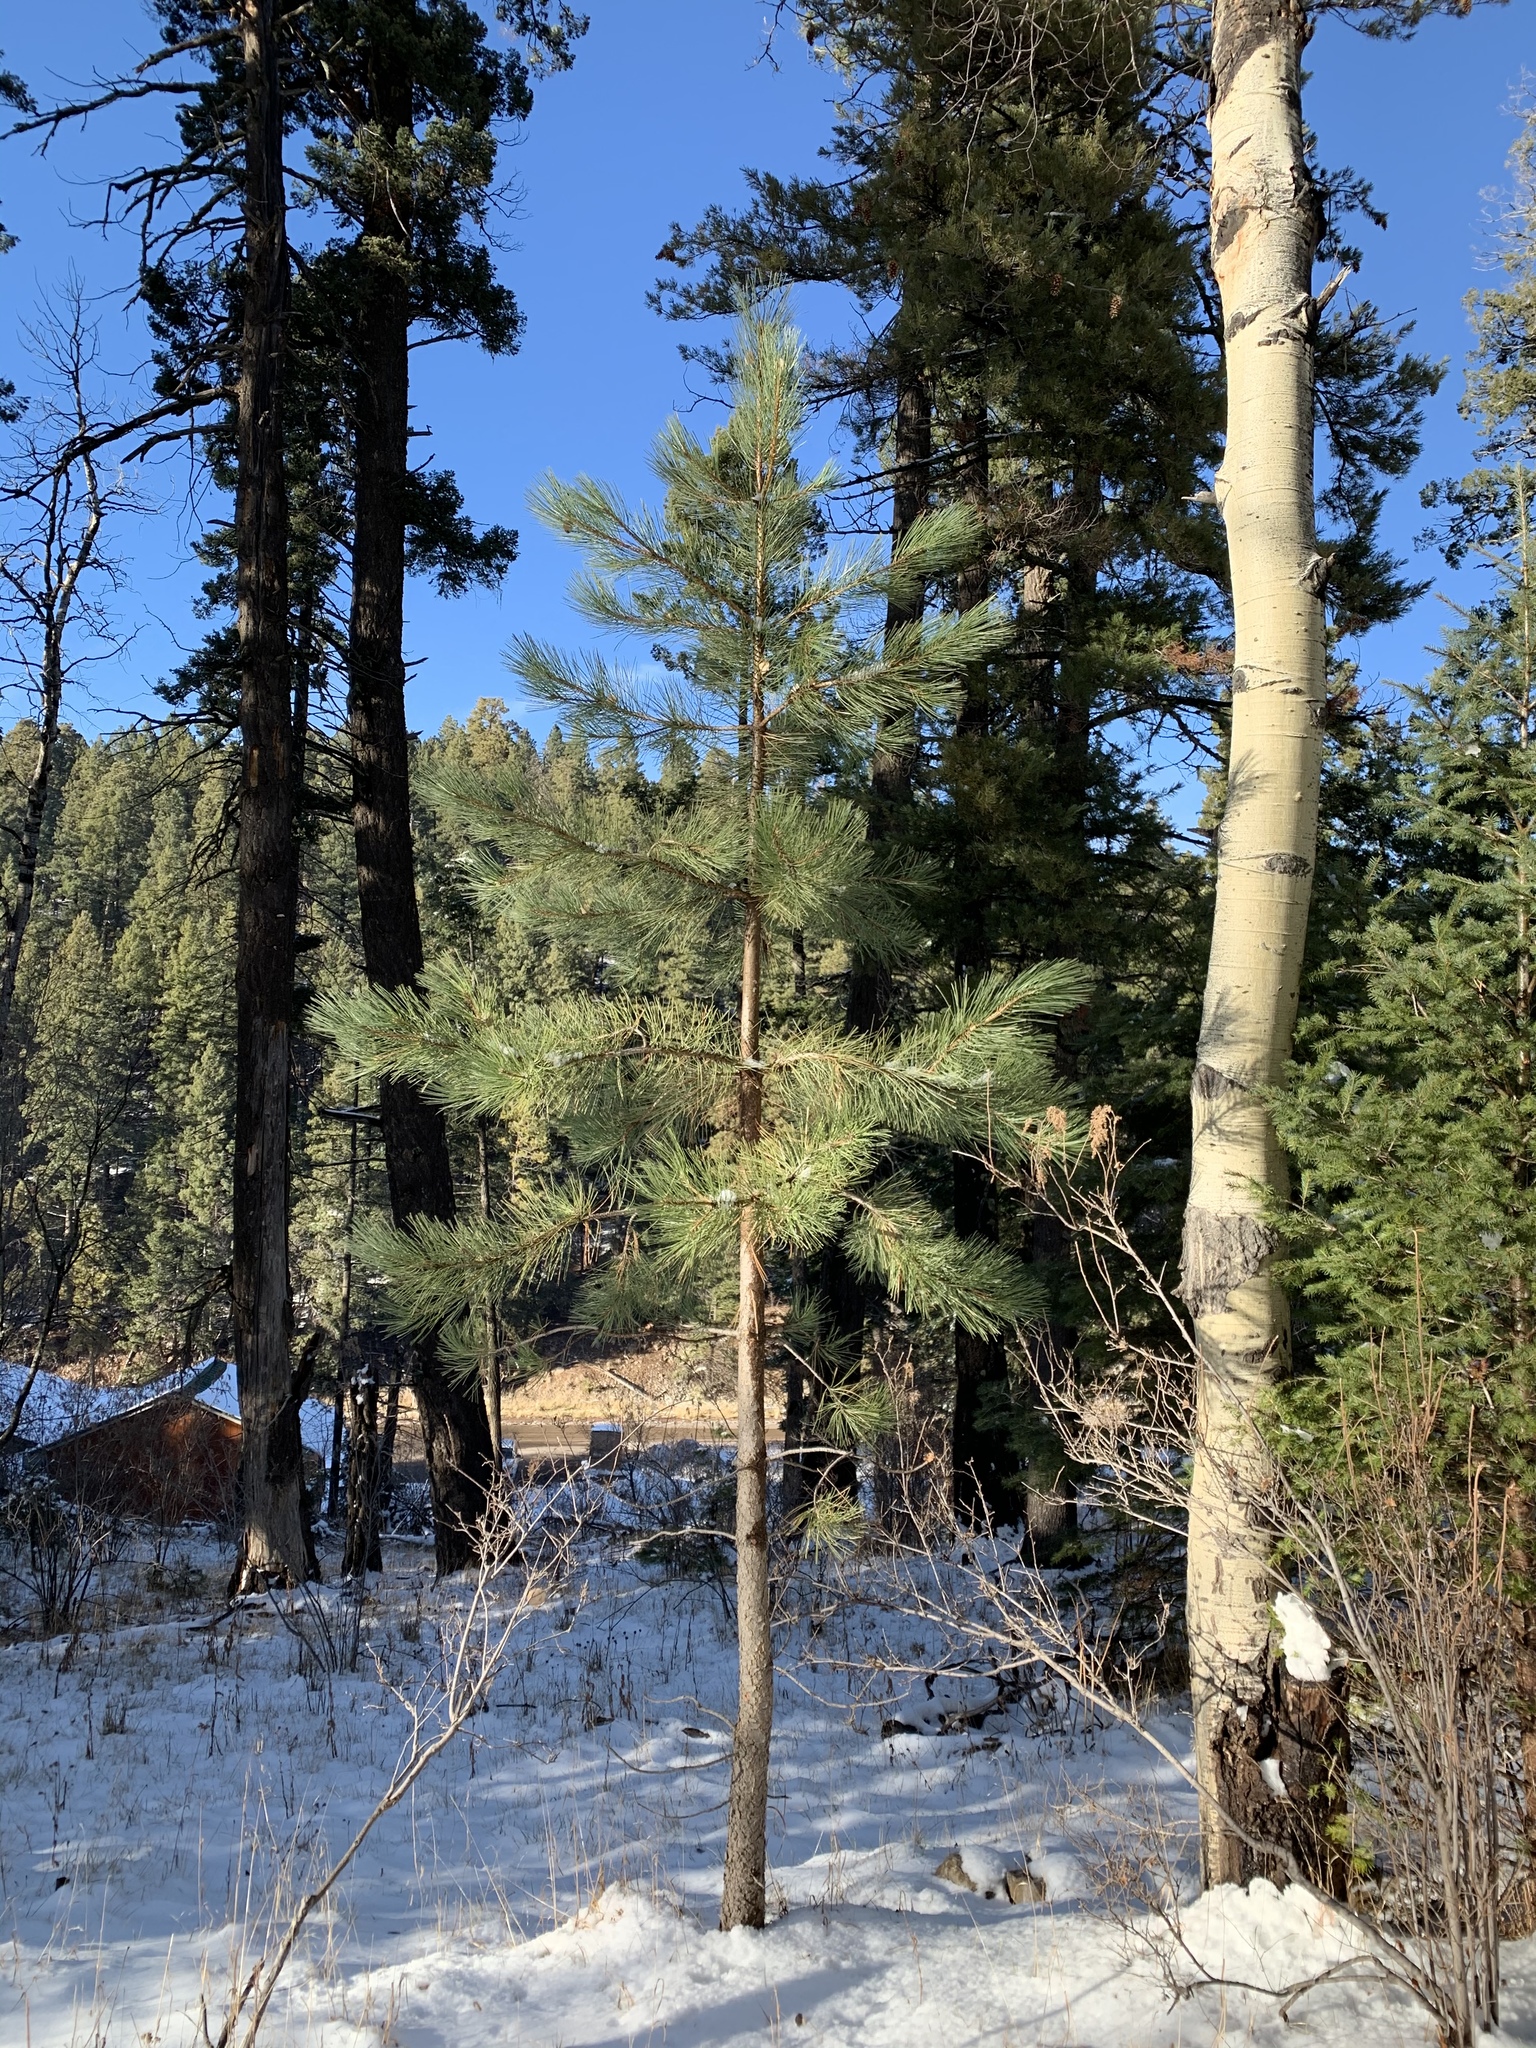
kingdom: Plantae
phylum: Tracheophyta
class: Pinopsida
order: Pinales
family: Pinaceae
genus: Pinus
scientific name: Pinus ponderosa
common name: Western yellow-pine
